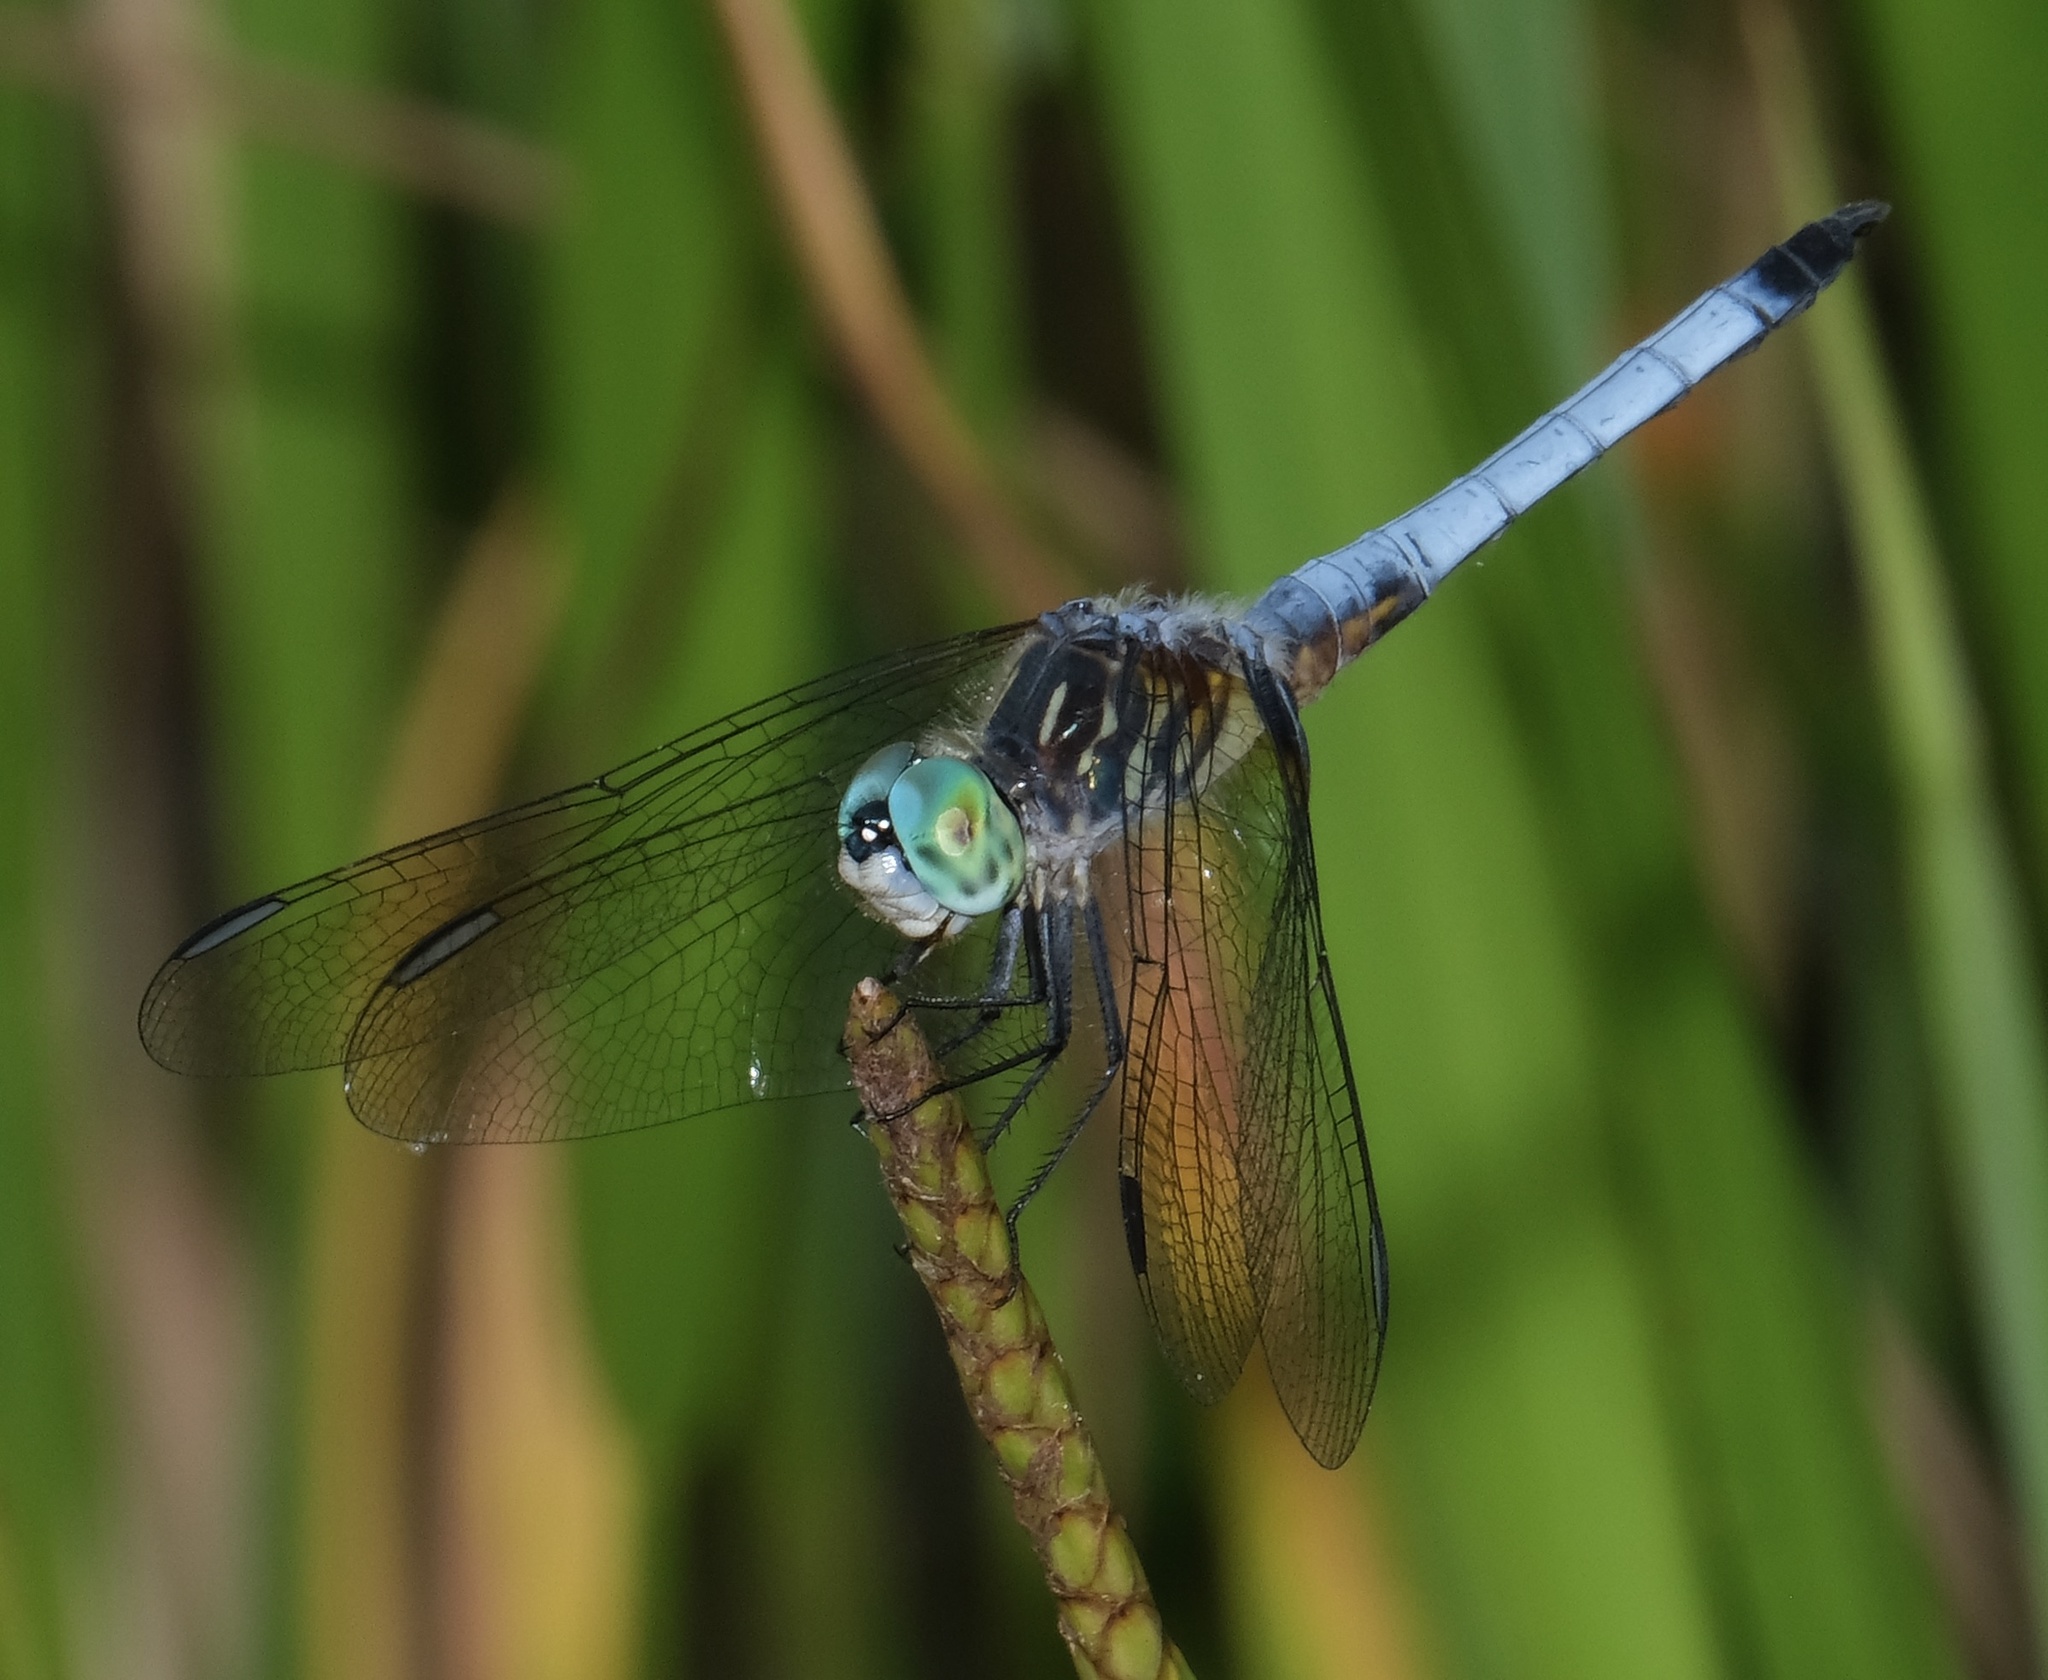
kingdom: Animalia
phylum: Arthropoda
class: Insecta
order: Odonata
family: Libellulidae
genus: Pachydiplax
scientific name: Pachydiplax longipennis
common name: Blue dasher
